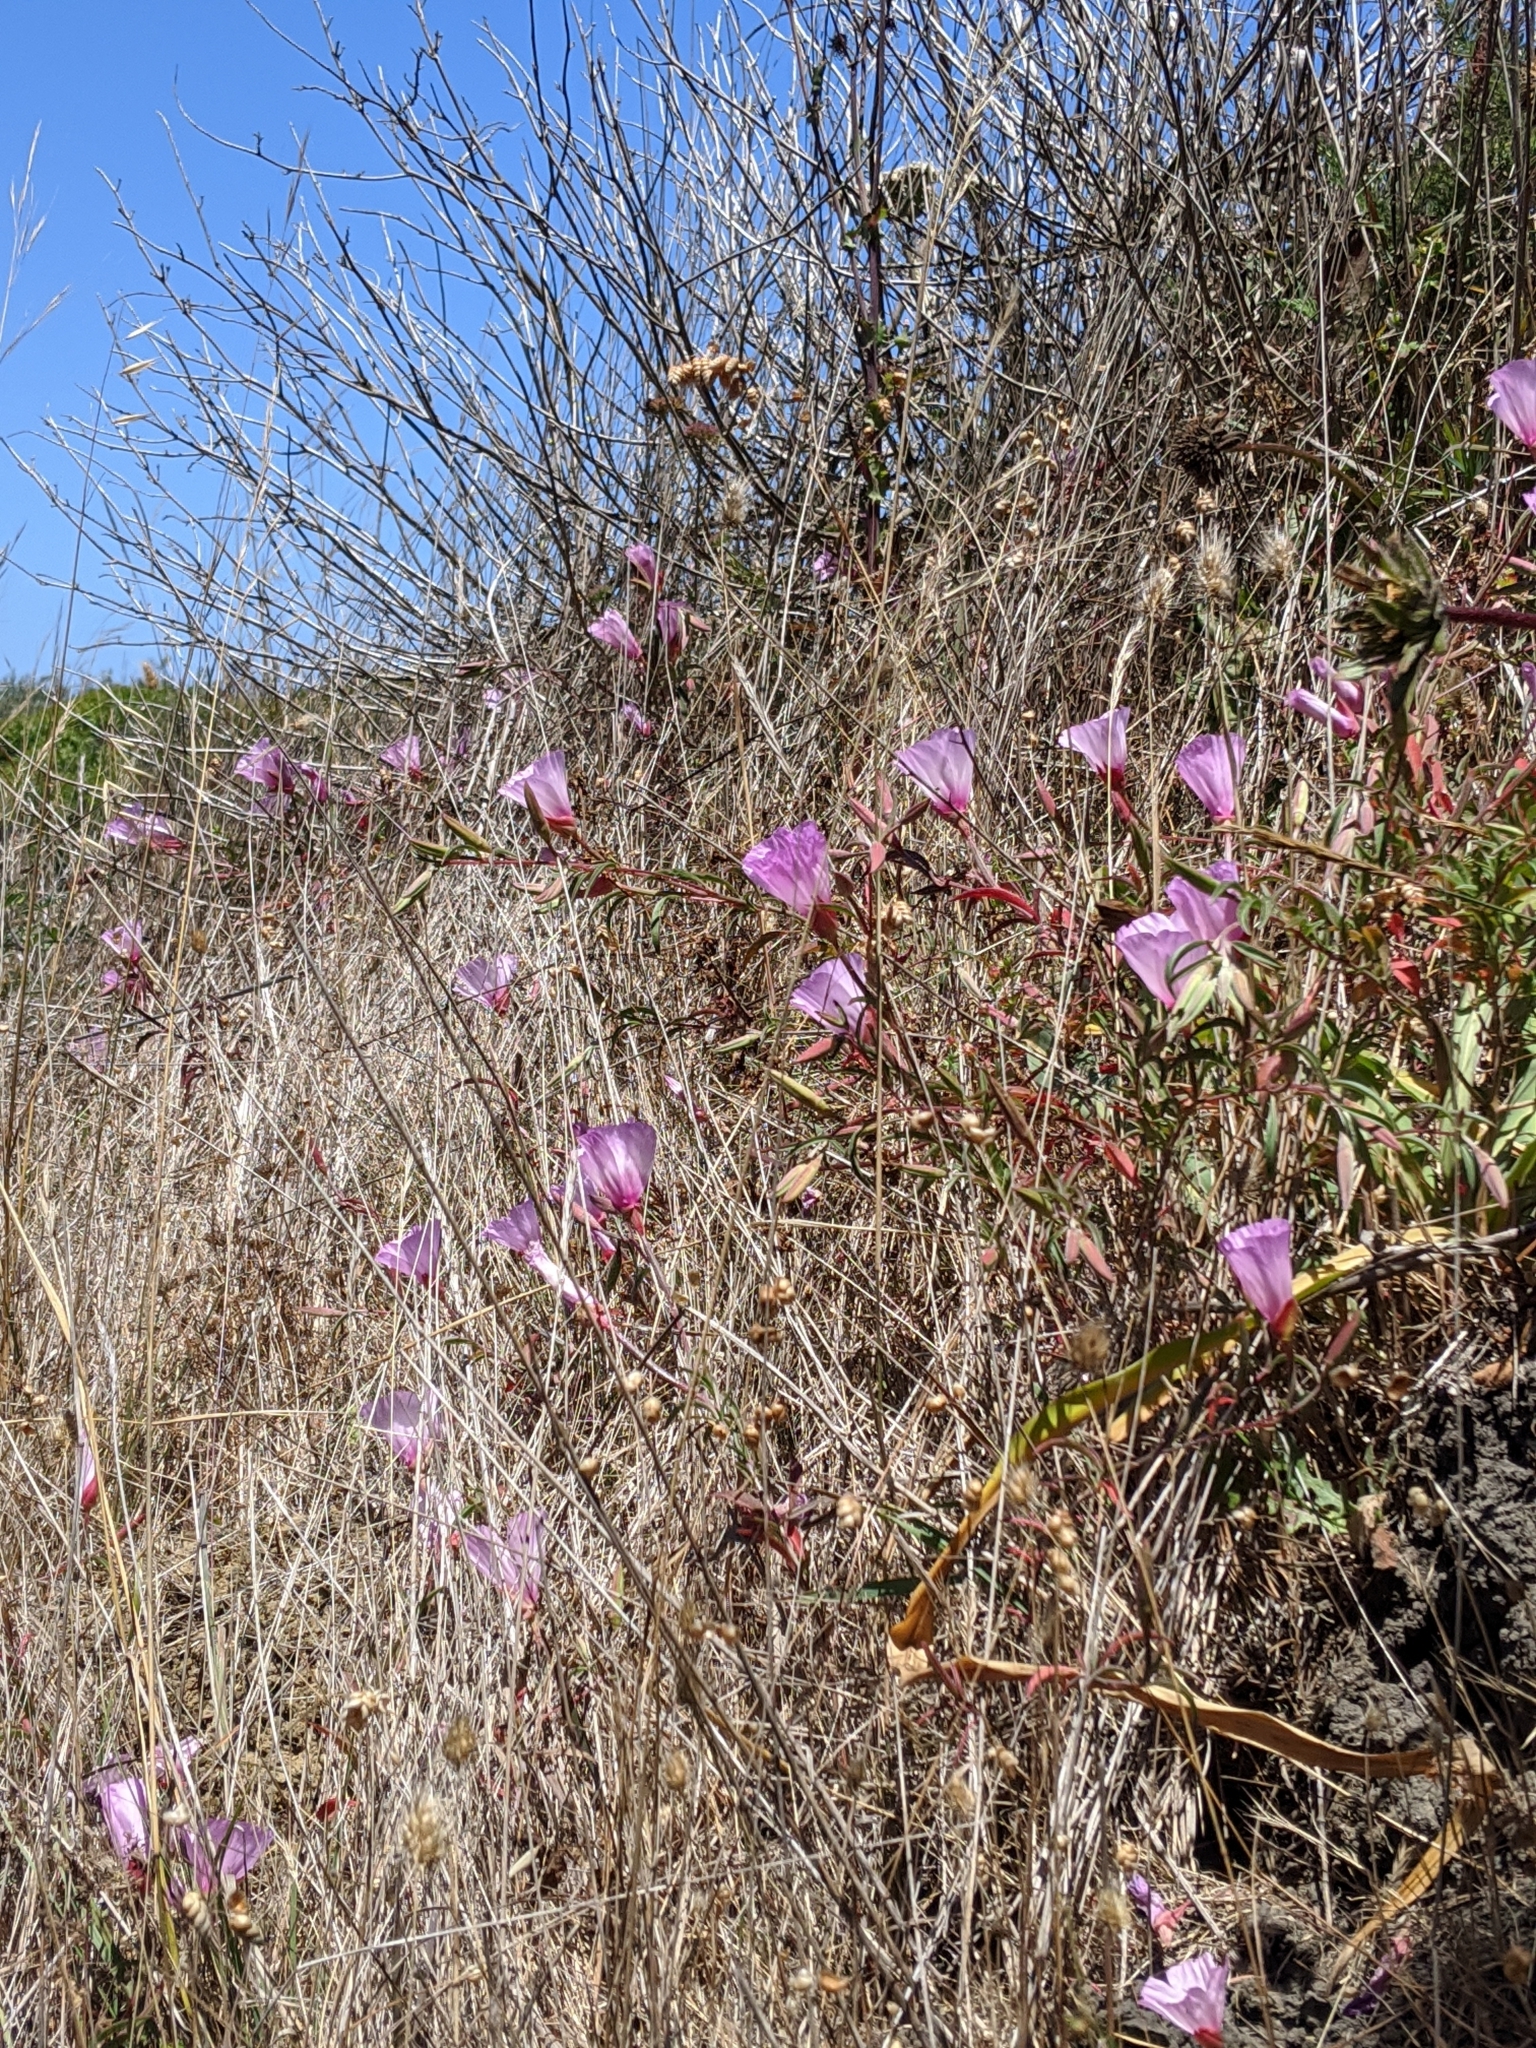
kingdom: Plantae
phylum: Tracheophyta
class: Magnoliopsida
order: Myrtales
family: Onagraceae
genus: Clarkia
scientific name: Clarkia rubicunda
